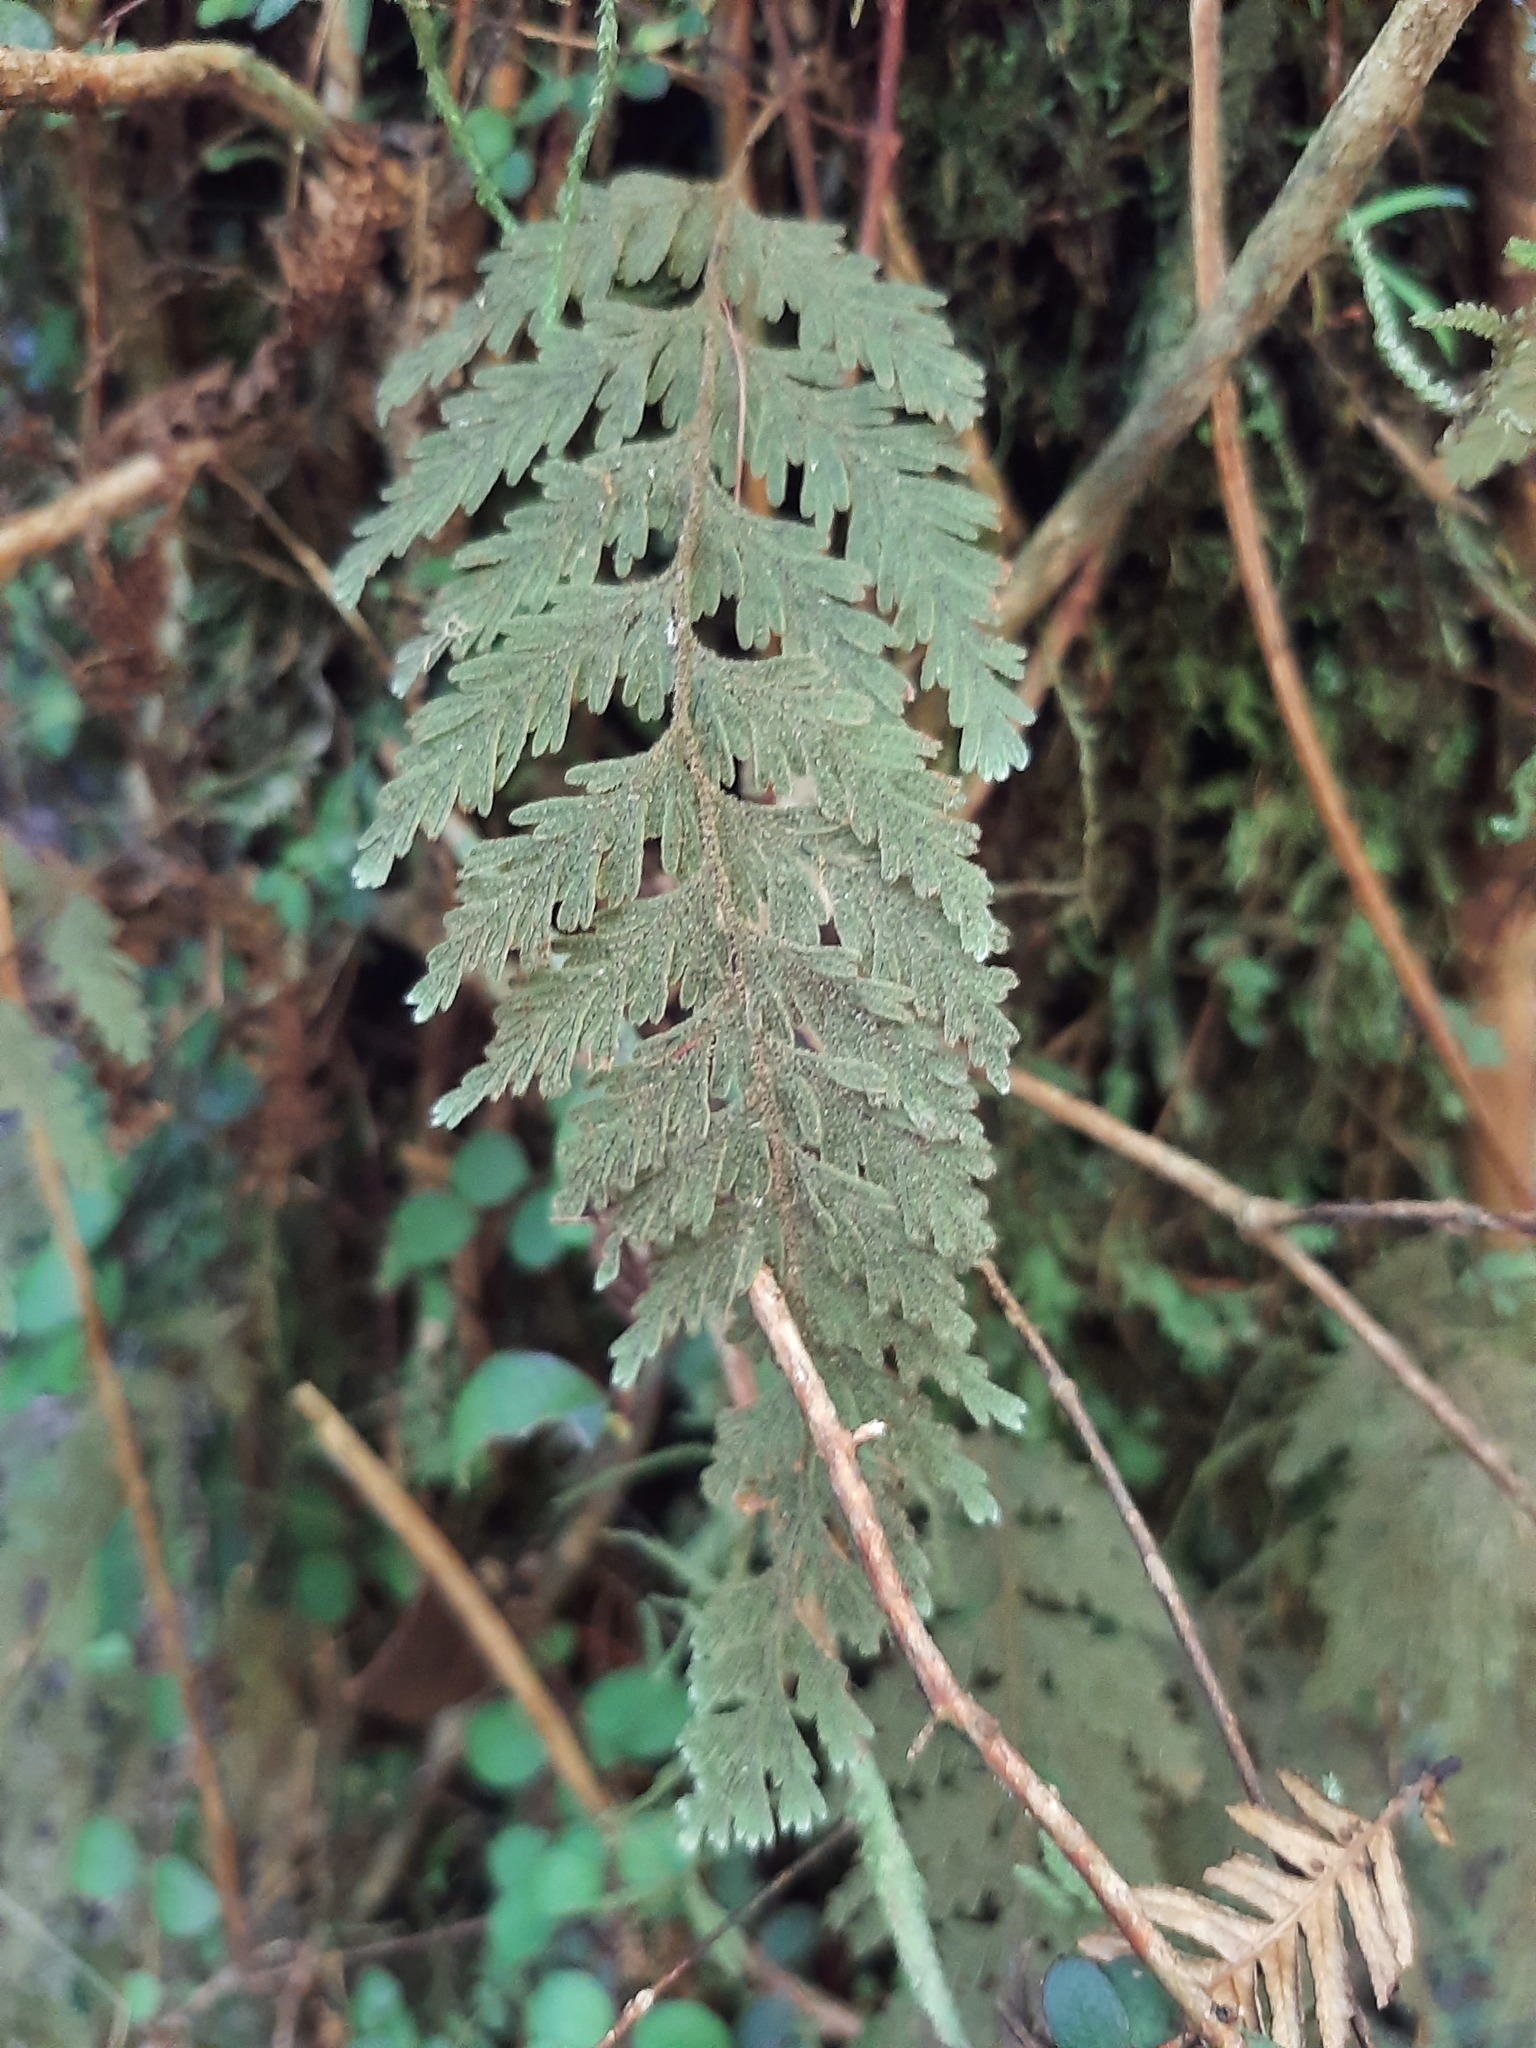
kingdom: Plantae
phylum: Tracheophyta
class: Polypodiopsida
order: Hymenophyllales
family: Hymenophyllaceae
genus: Hymenophyllum
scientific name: Hymenophyllum frankliniae
